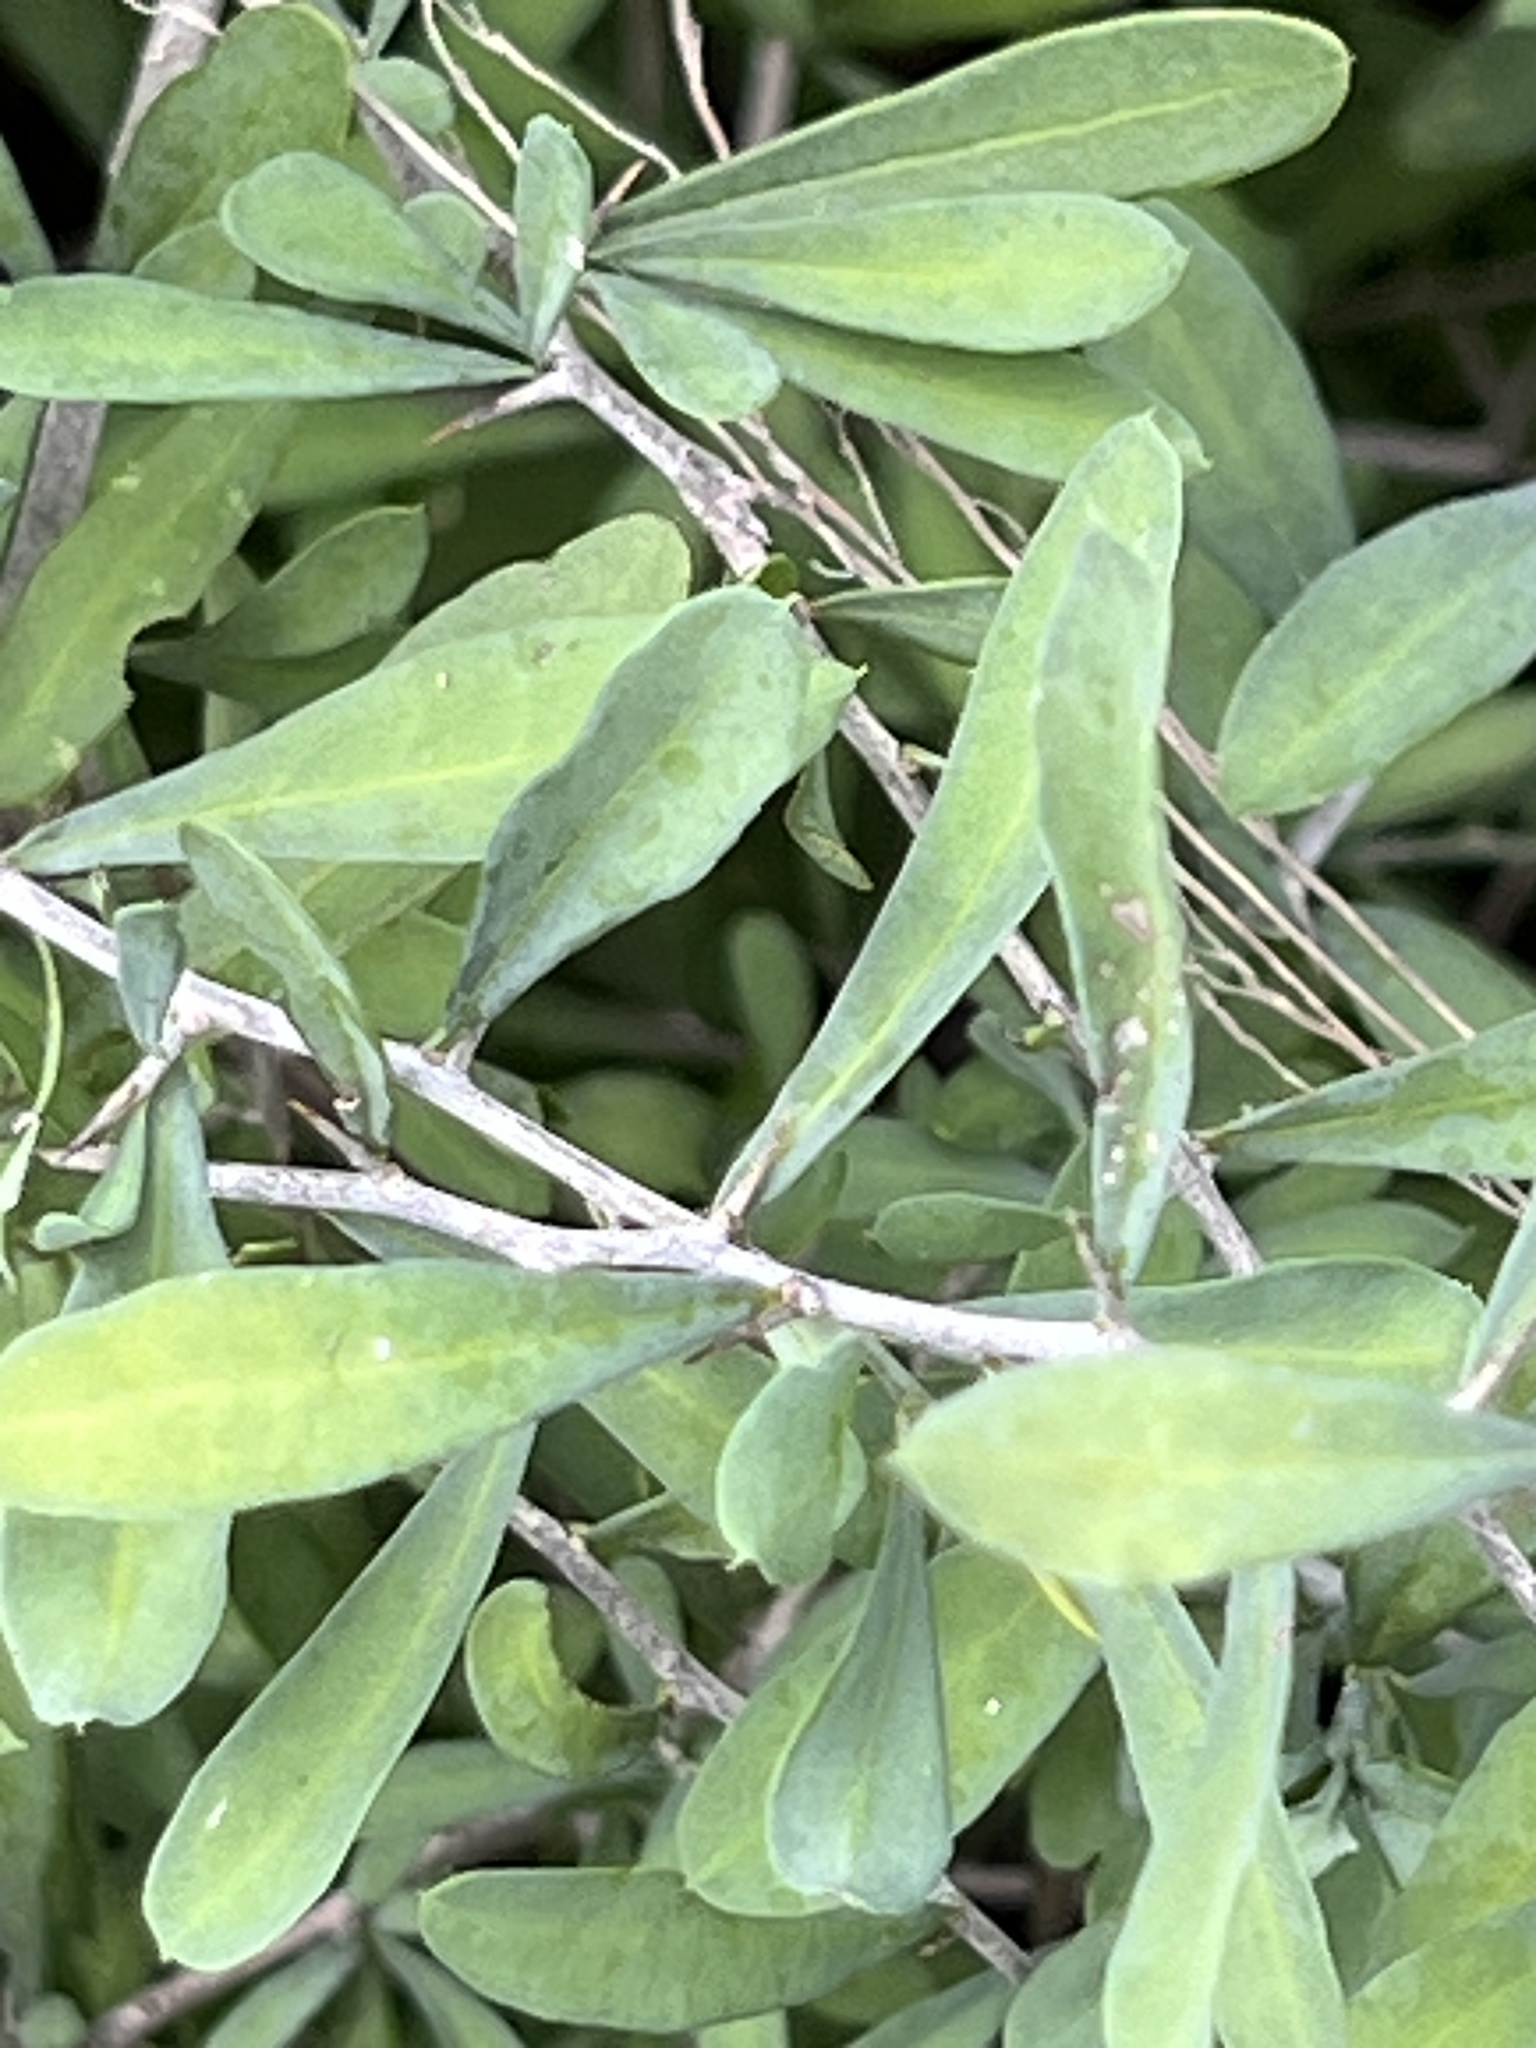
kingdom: Plantae
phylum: Tracheophyta
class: Magnoliopsida
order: Caryophyllales
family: Achatocarpaceae
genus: Phaulothamnus
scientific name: Phaulothamnus spinescens
